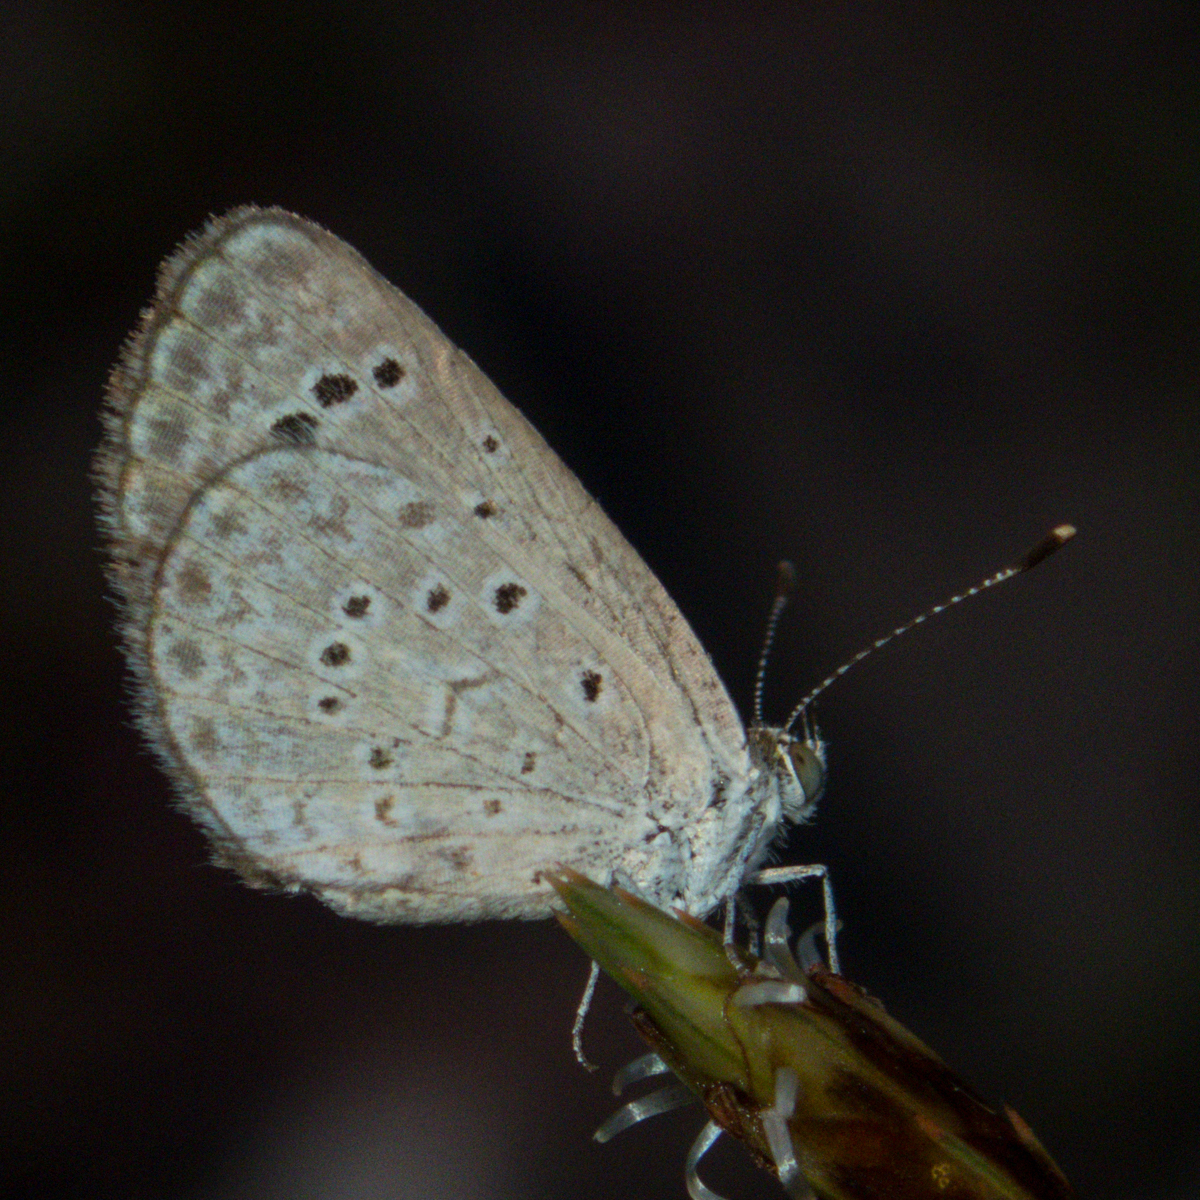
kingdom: Animalia
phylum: Arthropoda
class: Insecta
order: Lepidoptera
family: Lycaenidae
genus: Zizeeria
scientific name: Zizeeria karsandra
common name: Dark grass blue
